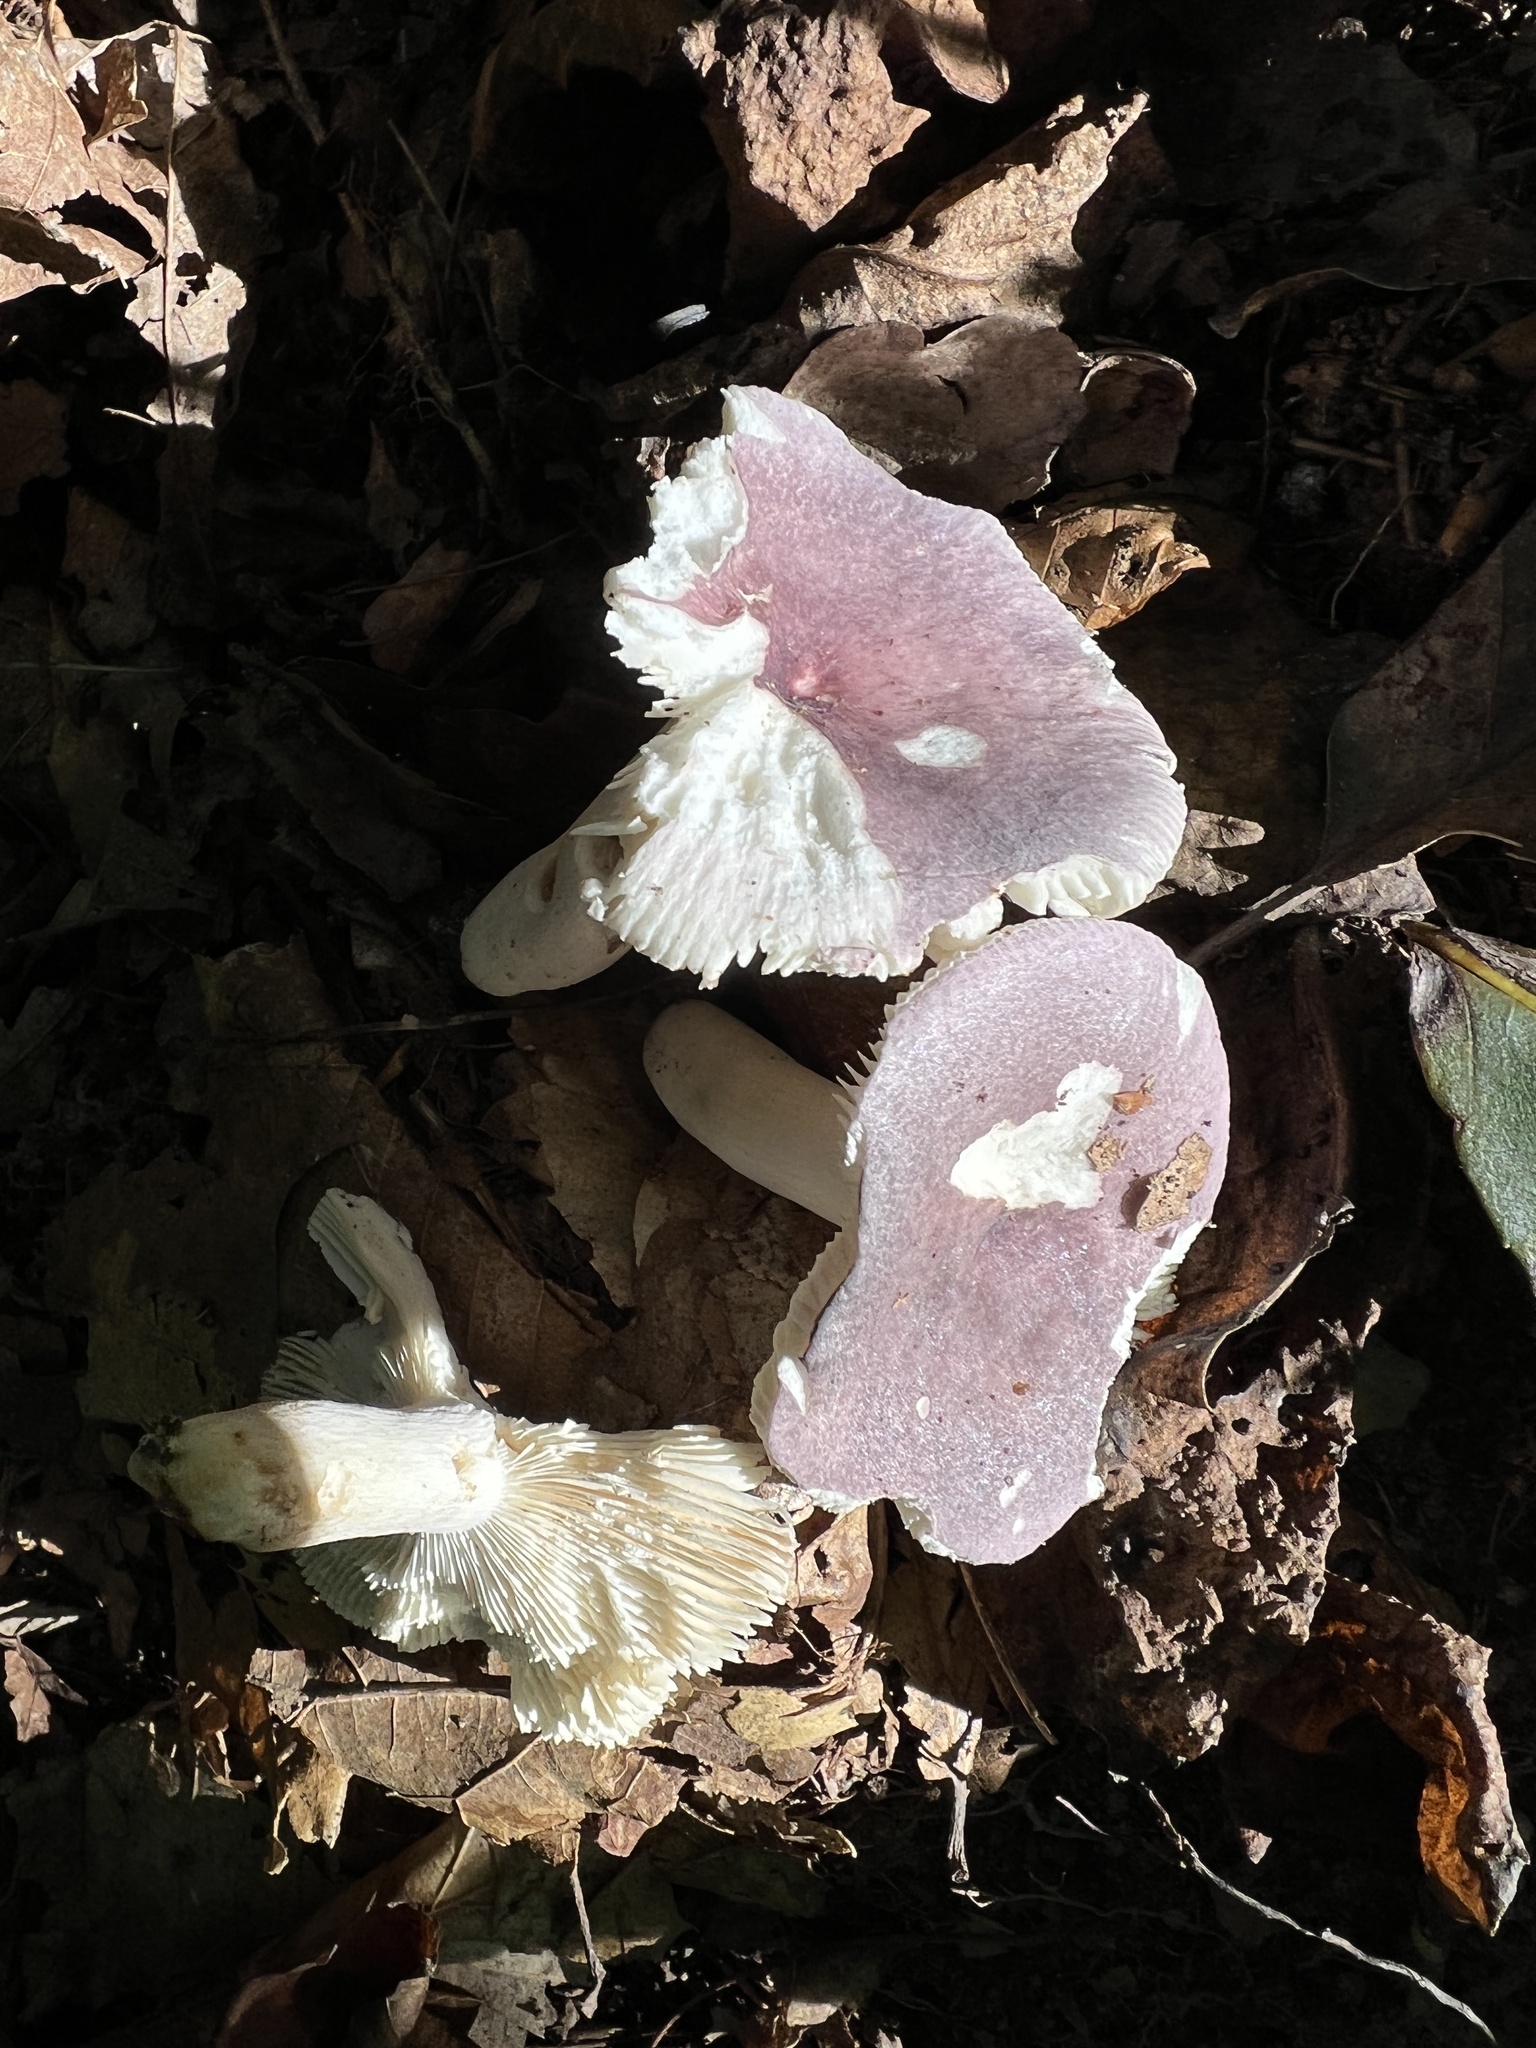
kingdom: Fungi
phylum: Basidiomycota
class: Agaricomycetes
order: Russulales
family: Russulaceae
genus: Russula
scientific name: Russula mariae
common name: Purple-bloom russula
